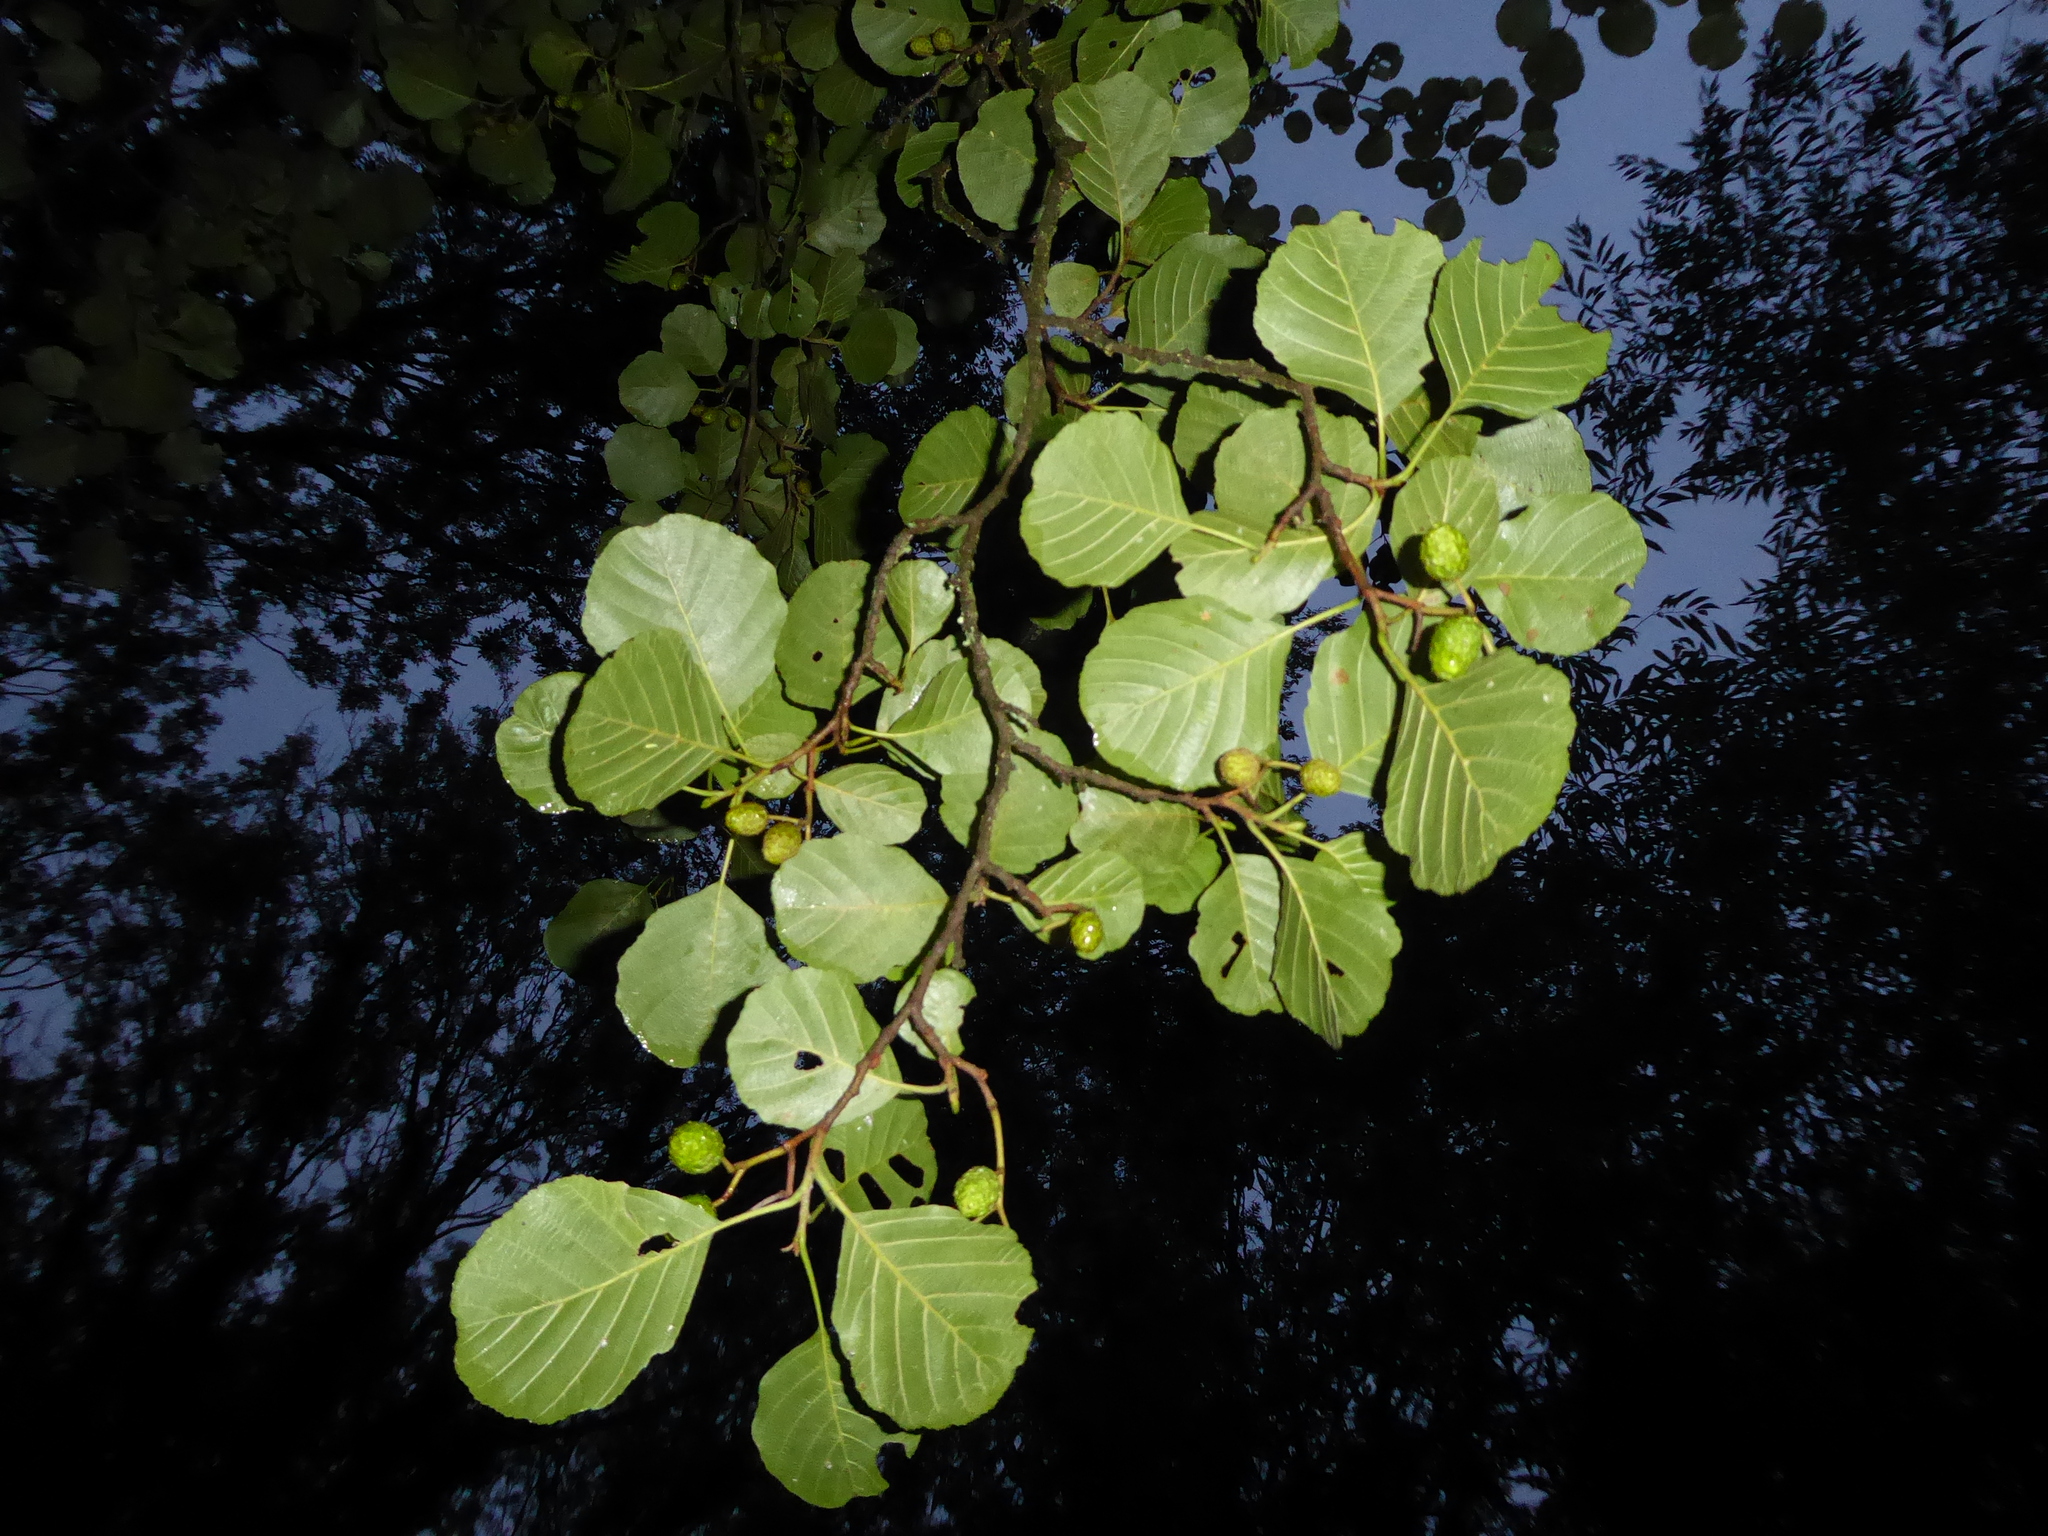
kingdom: Plantae
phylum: Tracheophyta
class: Magnoliopsida
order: Fagales
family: Betulaceae
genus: Alnus
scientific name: Alnus glutinosa
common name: Black alder
